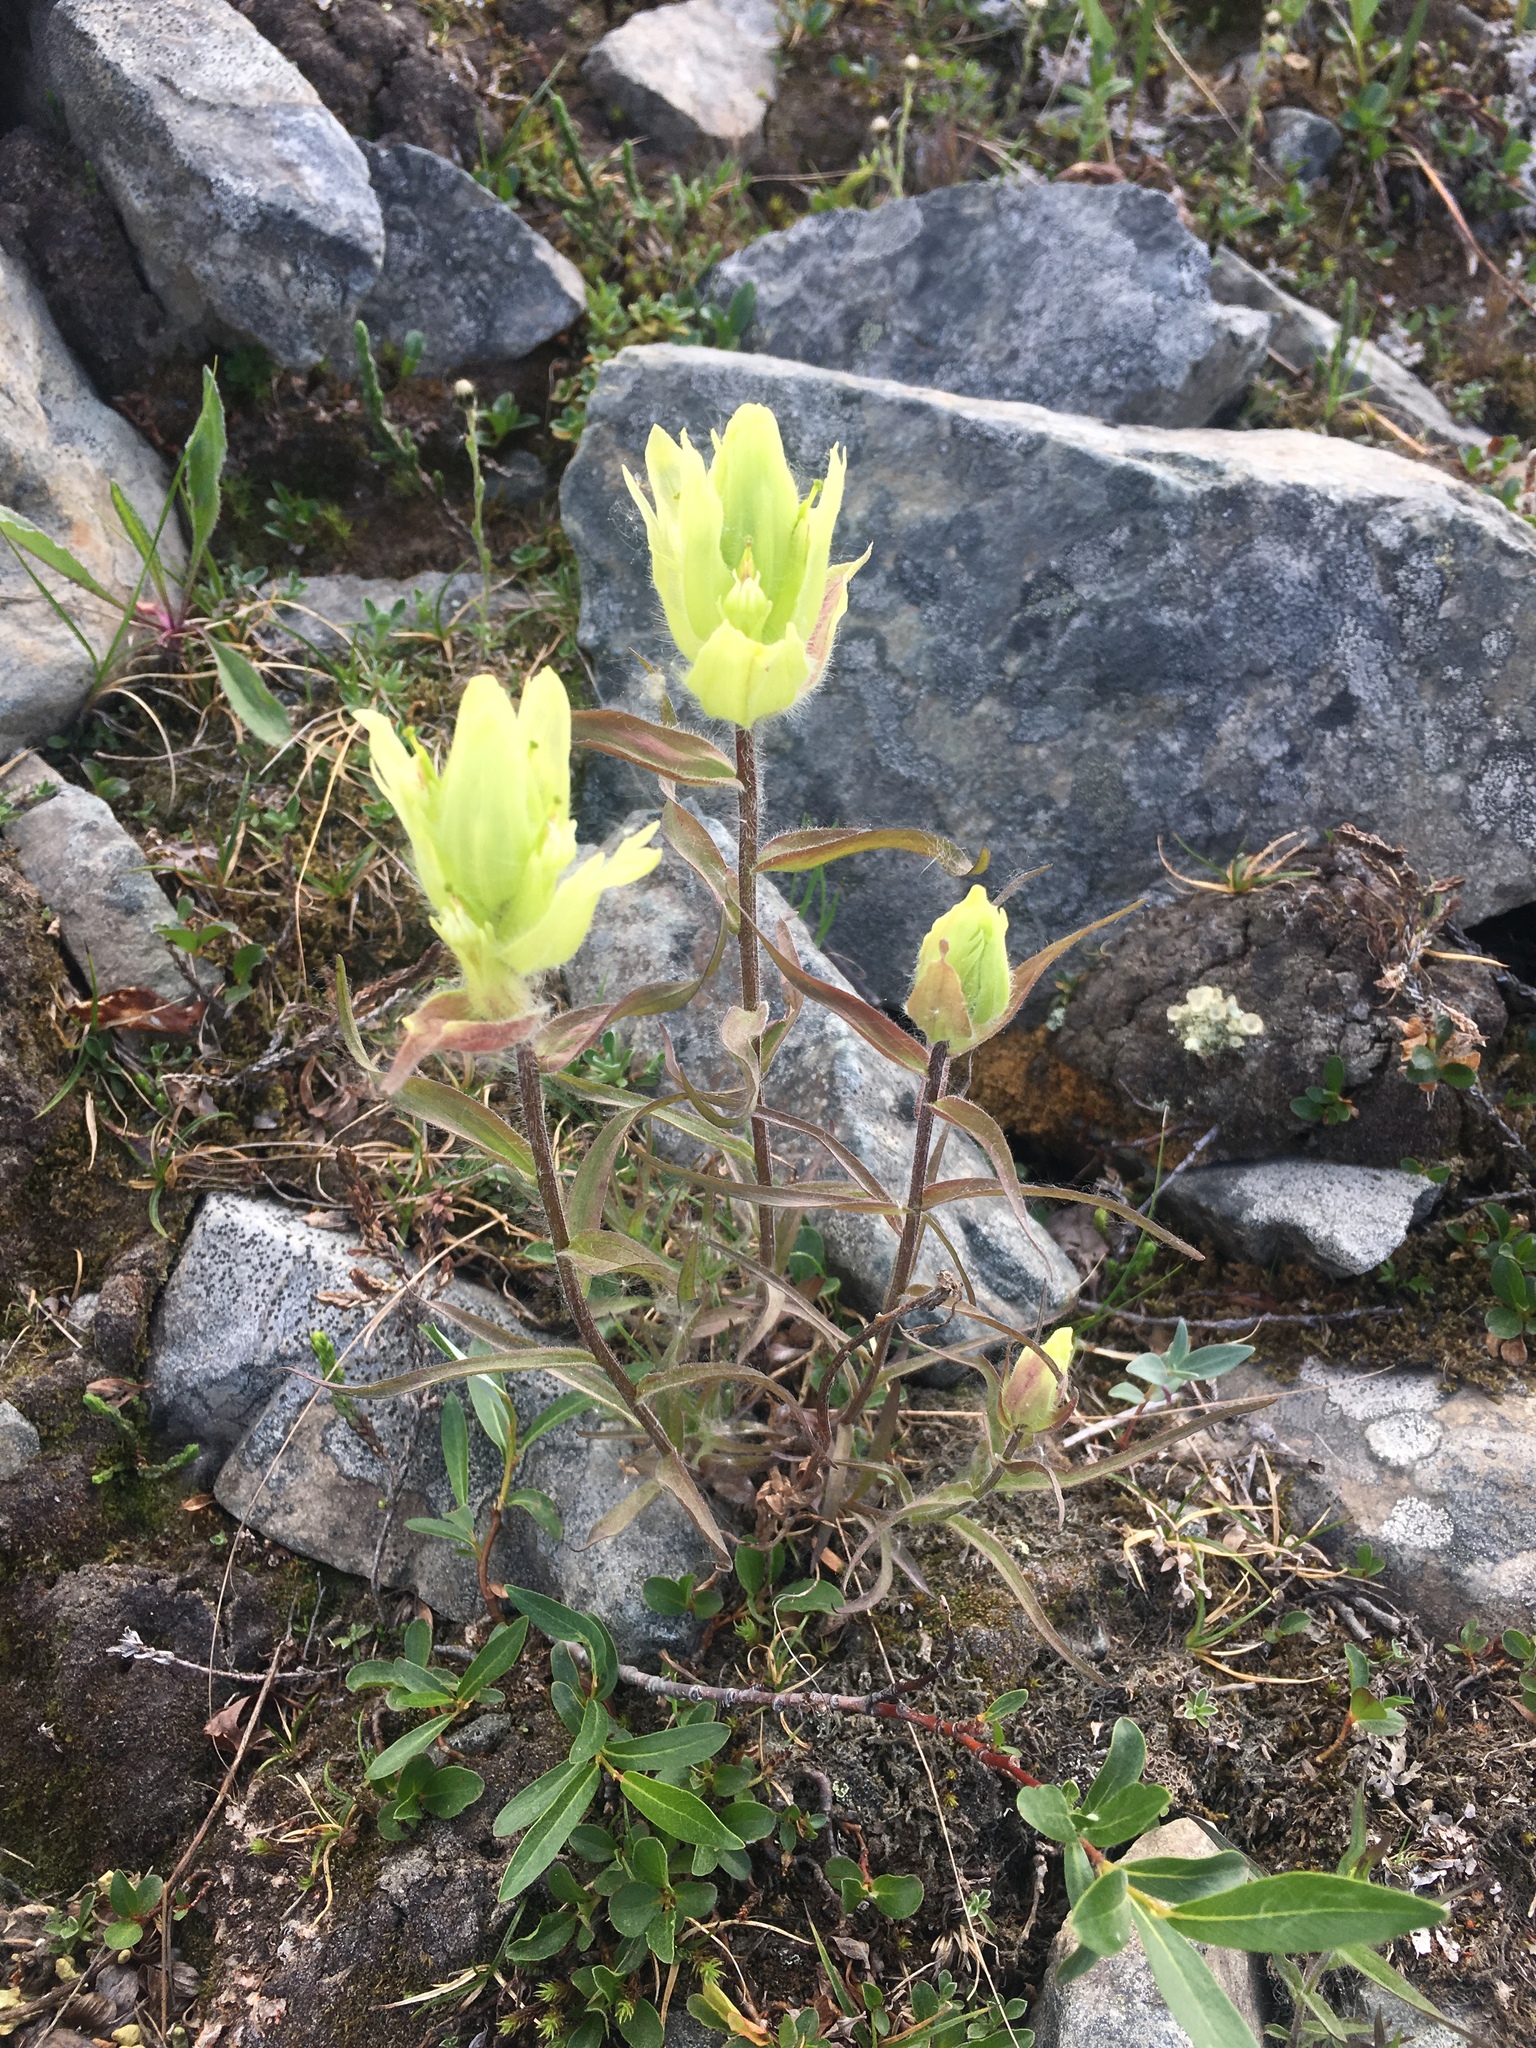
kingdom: Plantae
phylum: Tracheophyta
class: Magnoliopsida
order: Lamiales
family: Orobanchaceae
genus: Castilleja
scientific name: Castilleja unalaschcensis
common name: Unalaska paintbrush
